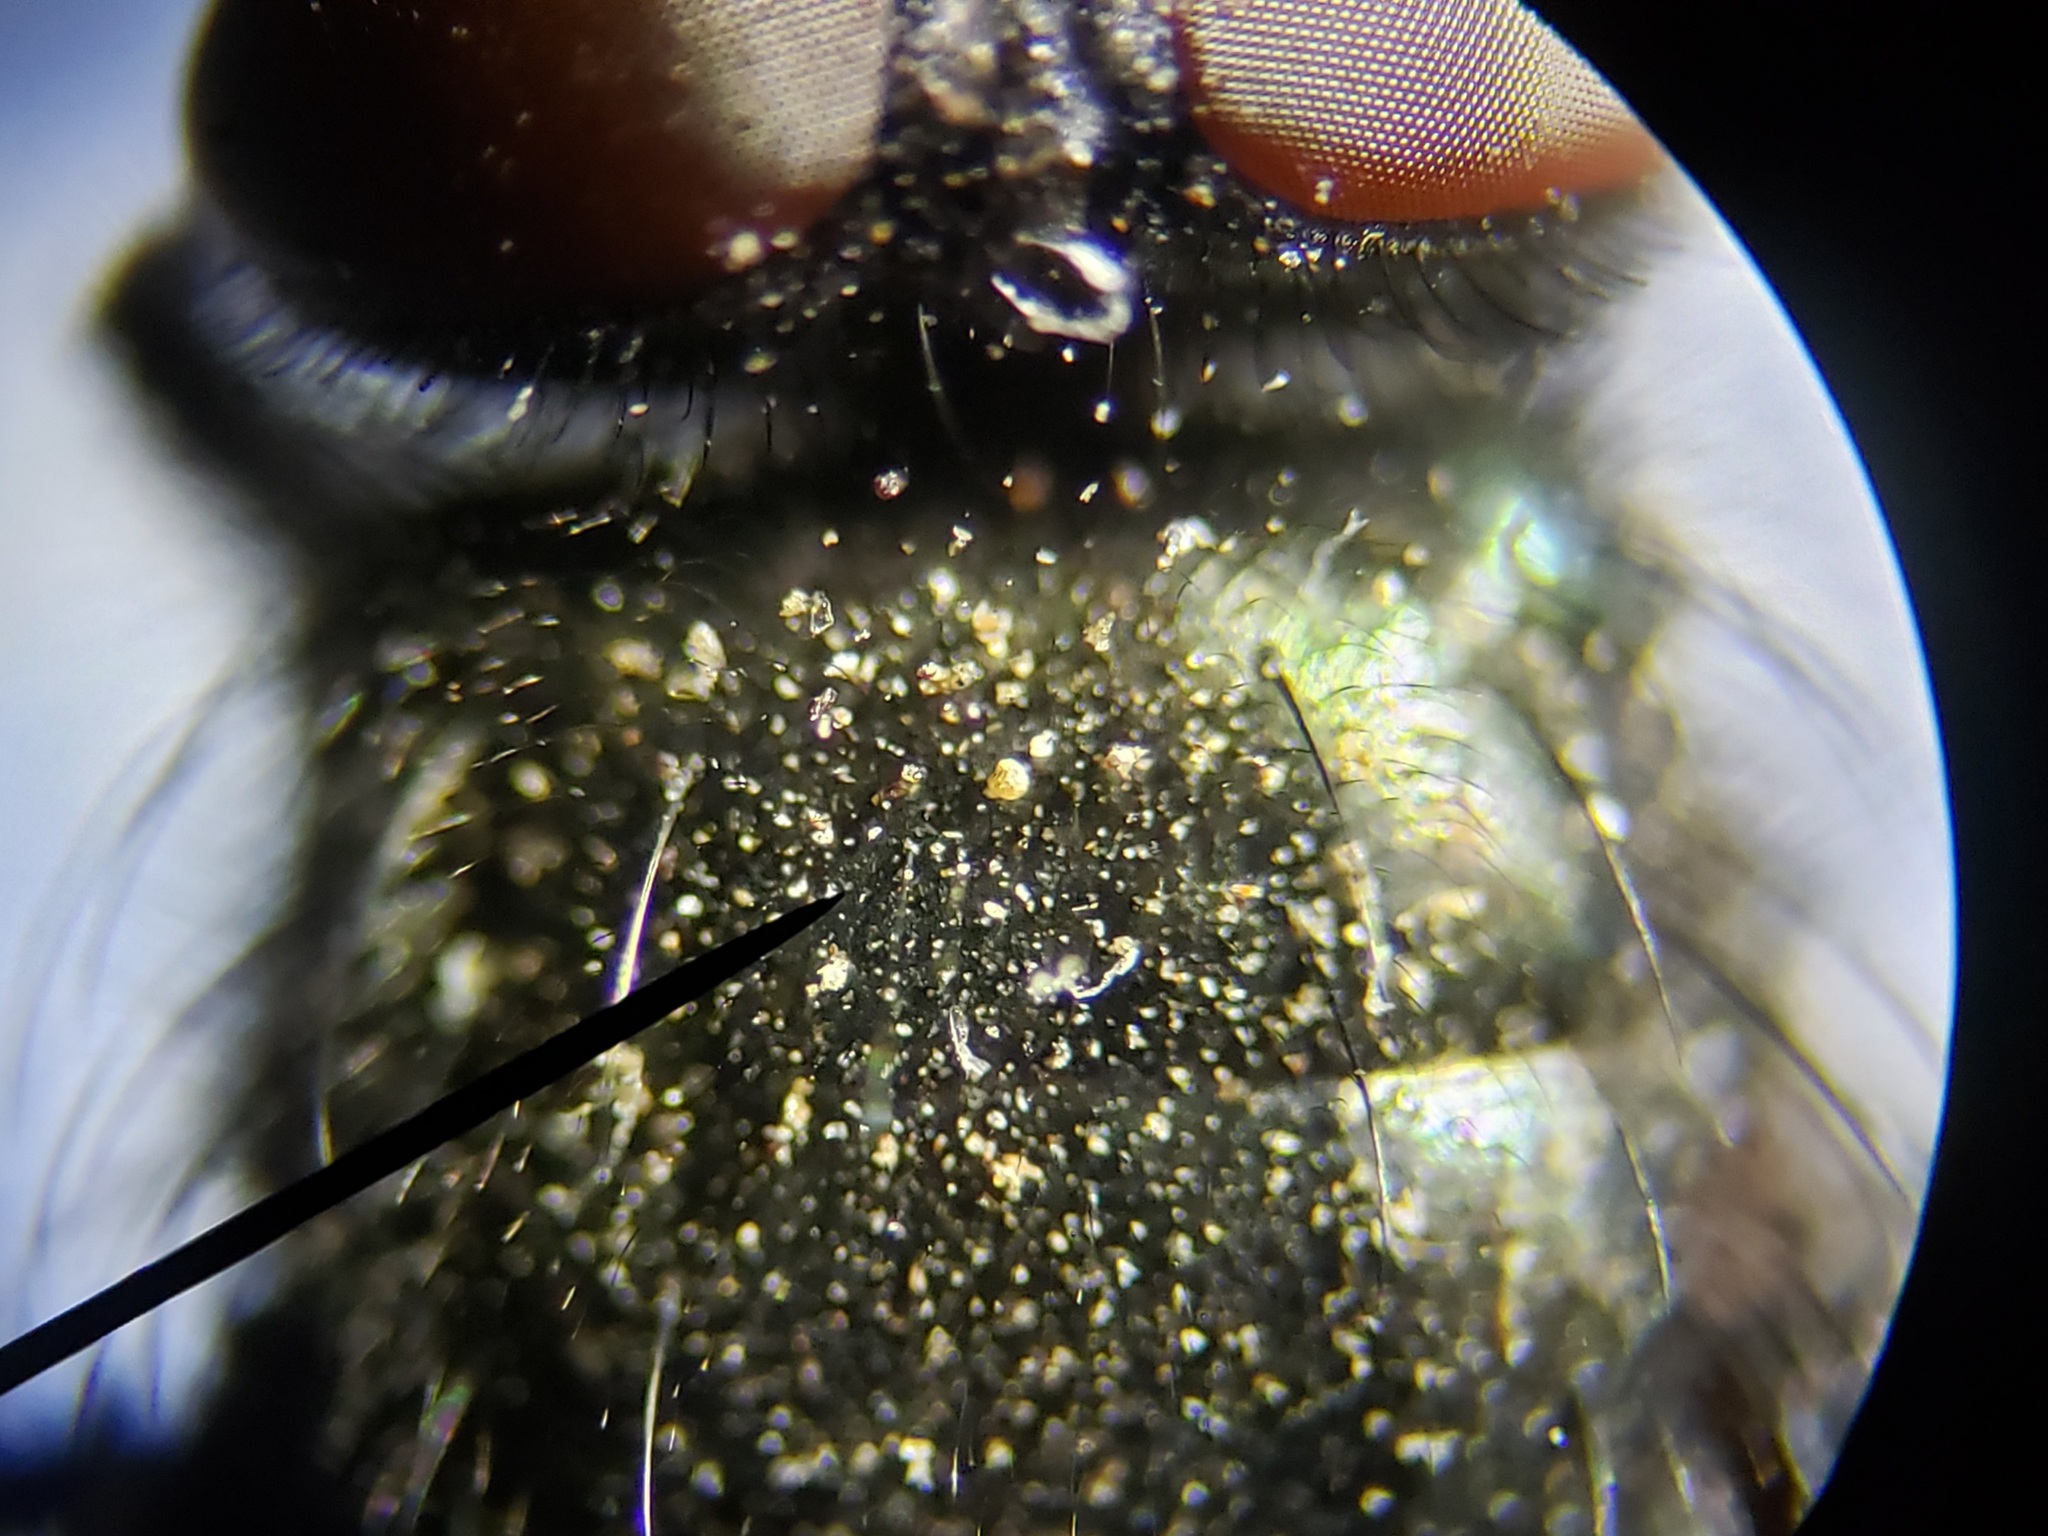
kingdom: Animalia
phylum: Arthropoda
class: Insecta
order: Diptera
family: Calliphoridae
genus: Protophormia
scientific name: Protophormia terraenovae
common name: Blackbottle
